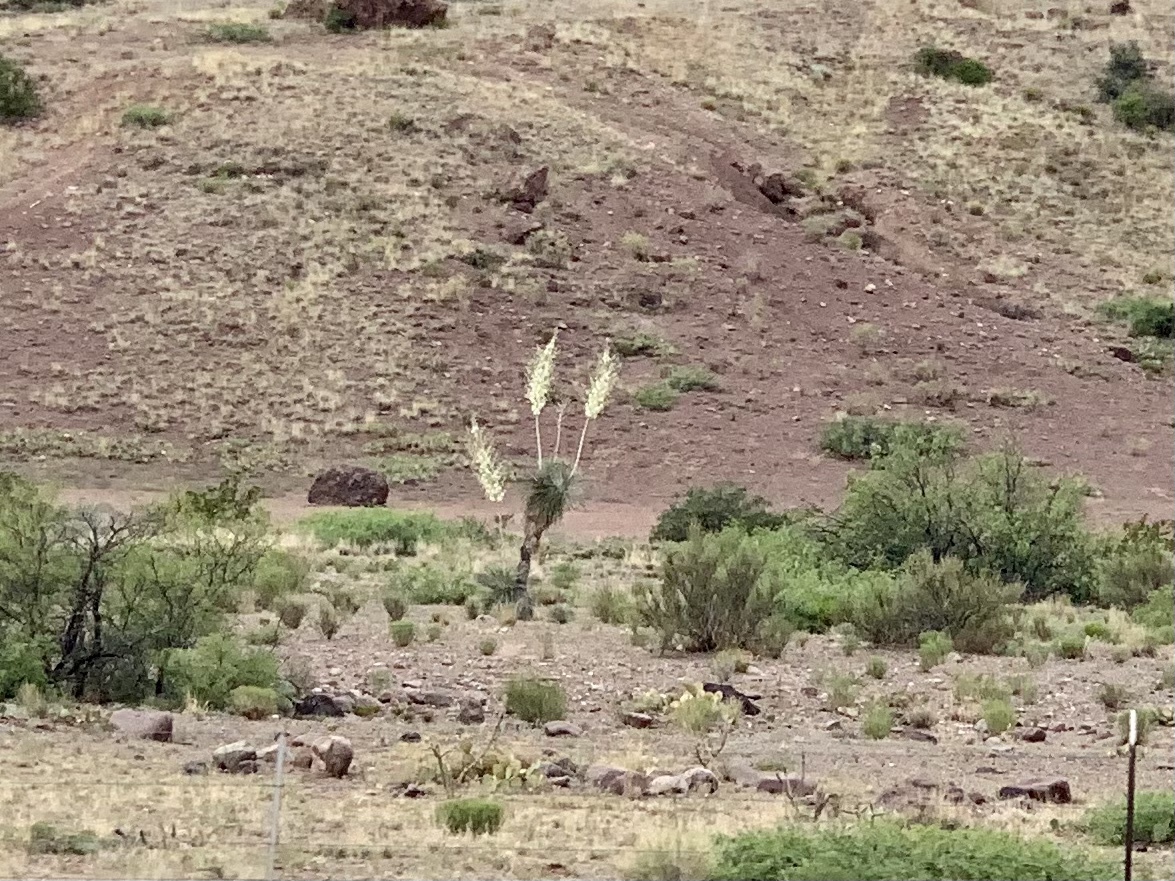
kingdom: Plantae
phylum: Tracheophyta
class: Liliopsida
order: Asparagales
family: Asparagaceae
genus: Yucca
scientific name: Yucca elata
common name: Palmella
